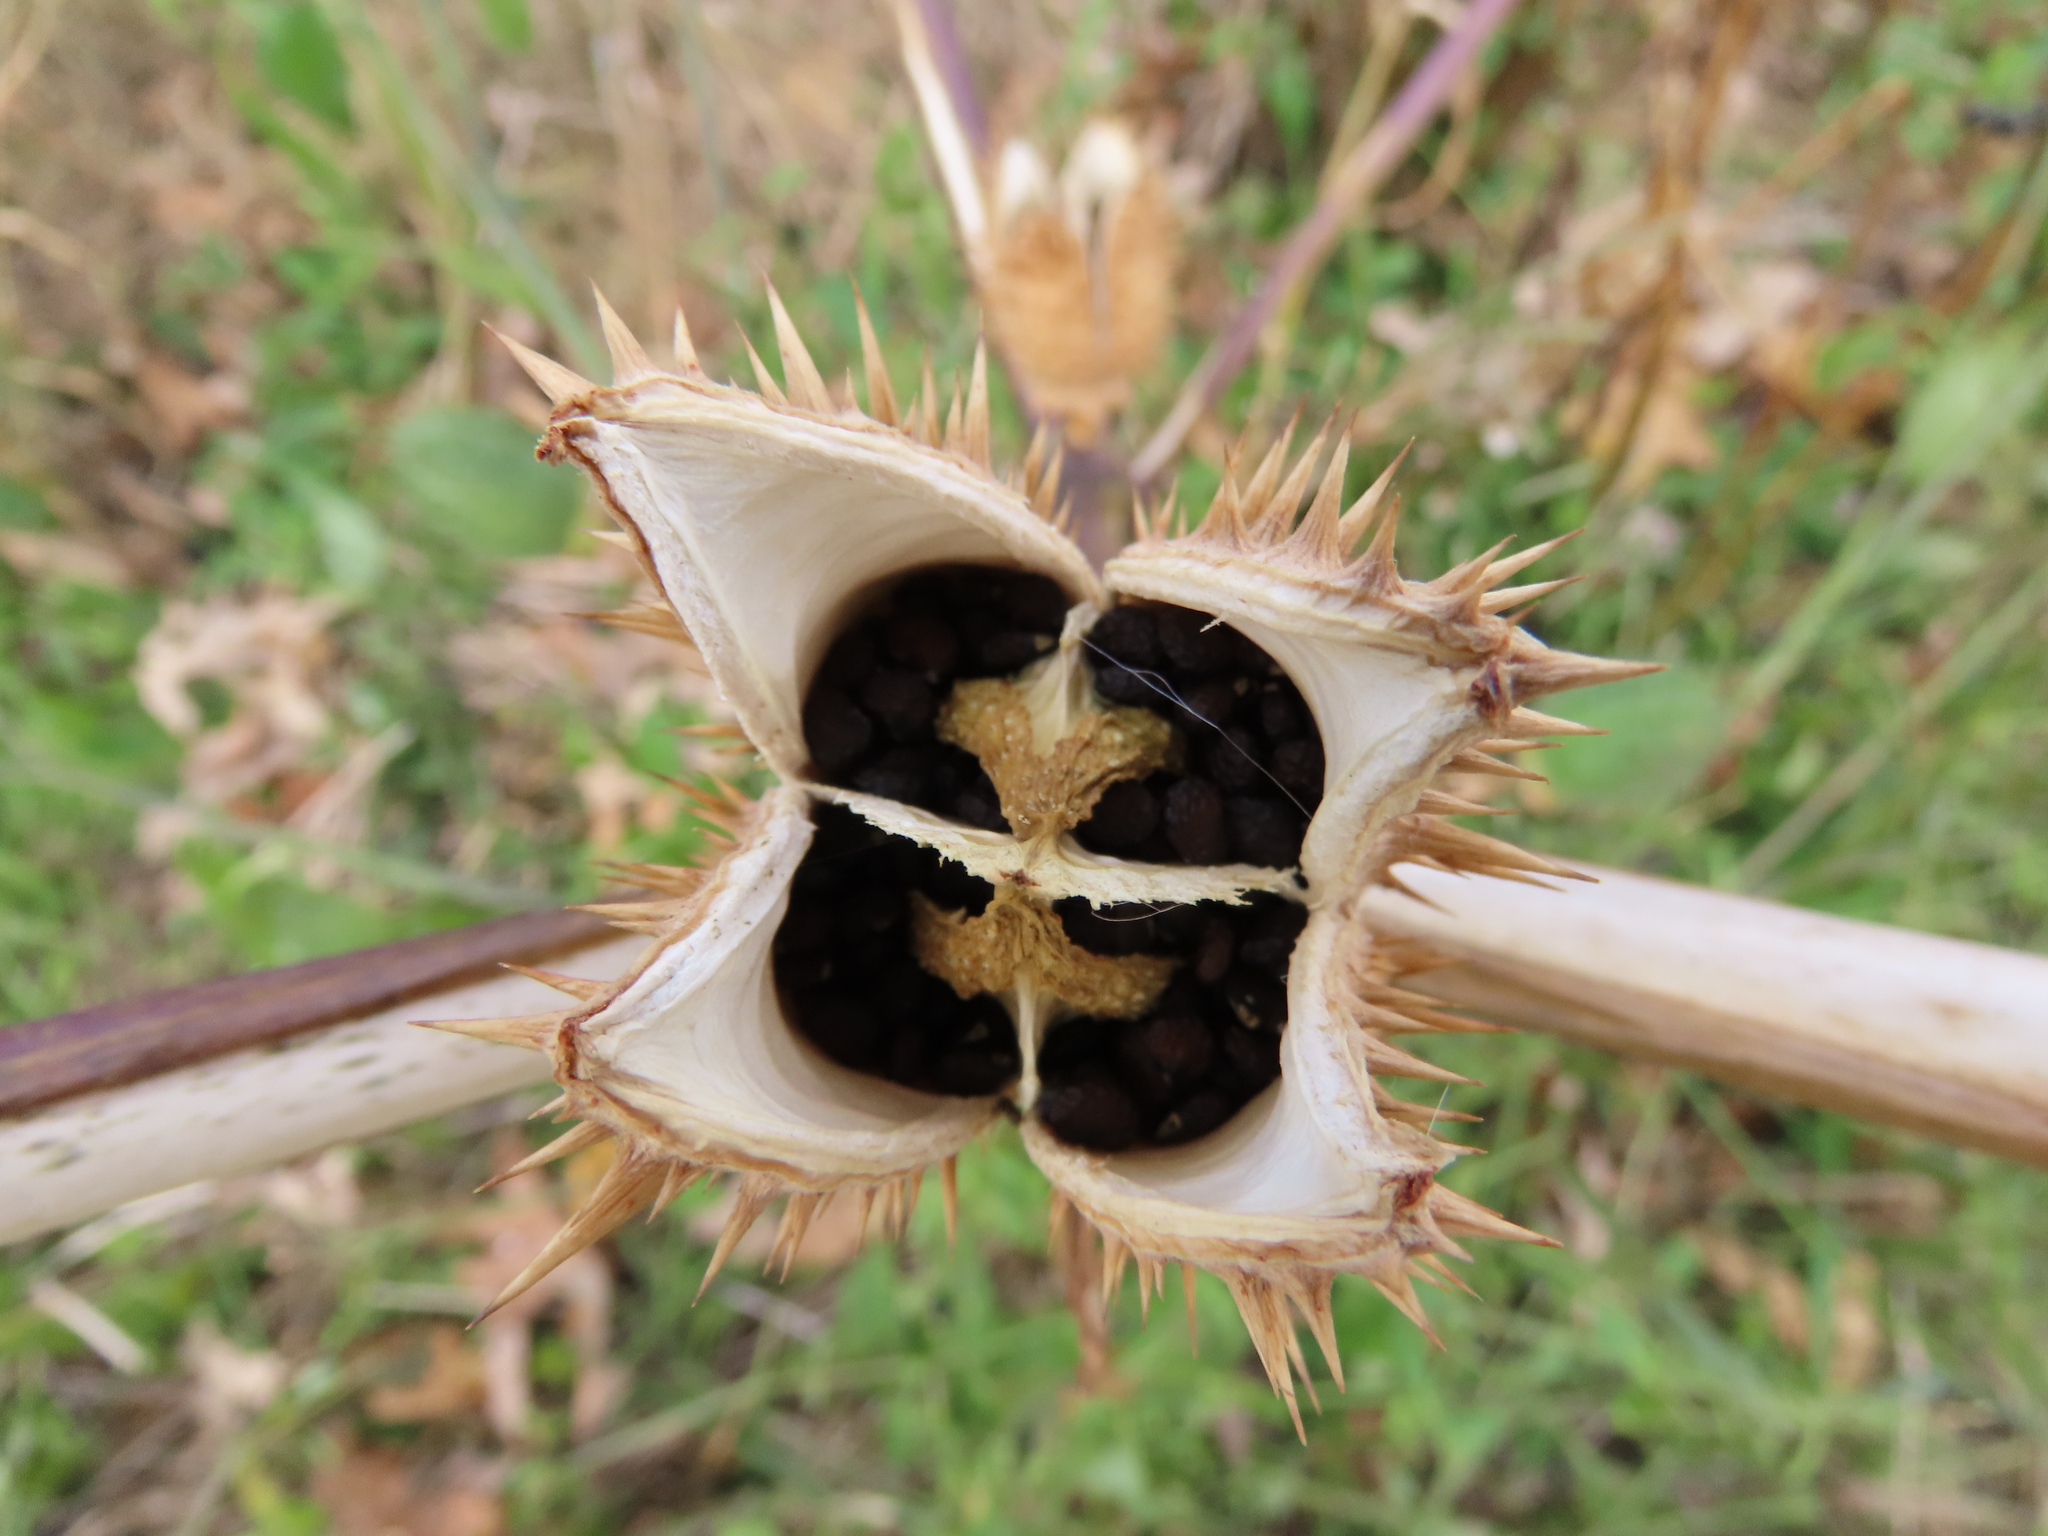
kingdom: Plantae
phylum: Tracheophyta
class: Magnoliopsida
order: Solanales
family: Solanaceae
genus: Datura
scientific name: Datura stramonium
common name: Thorn-apple
